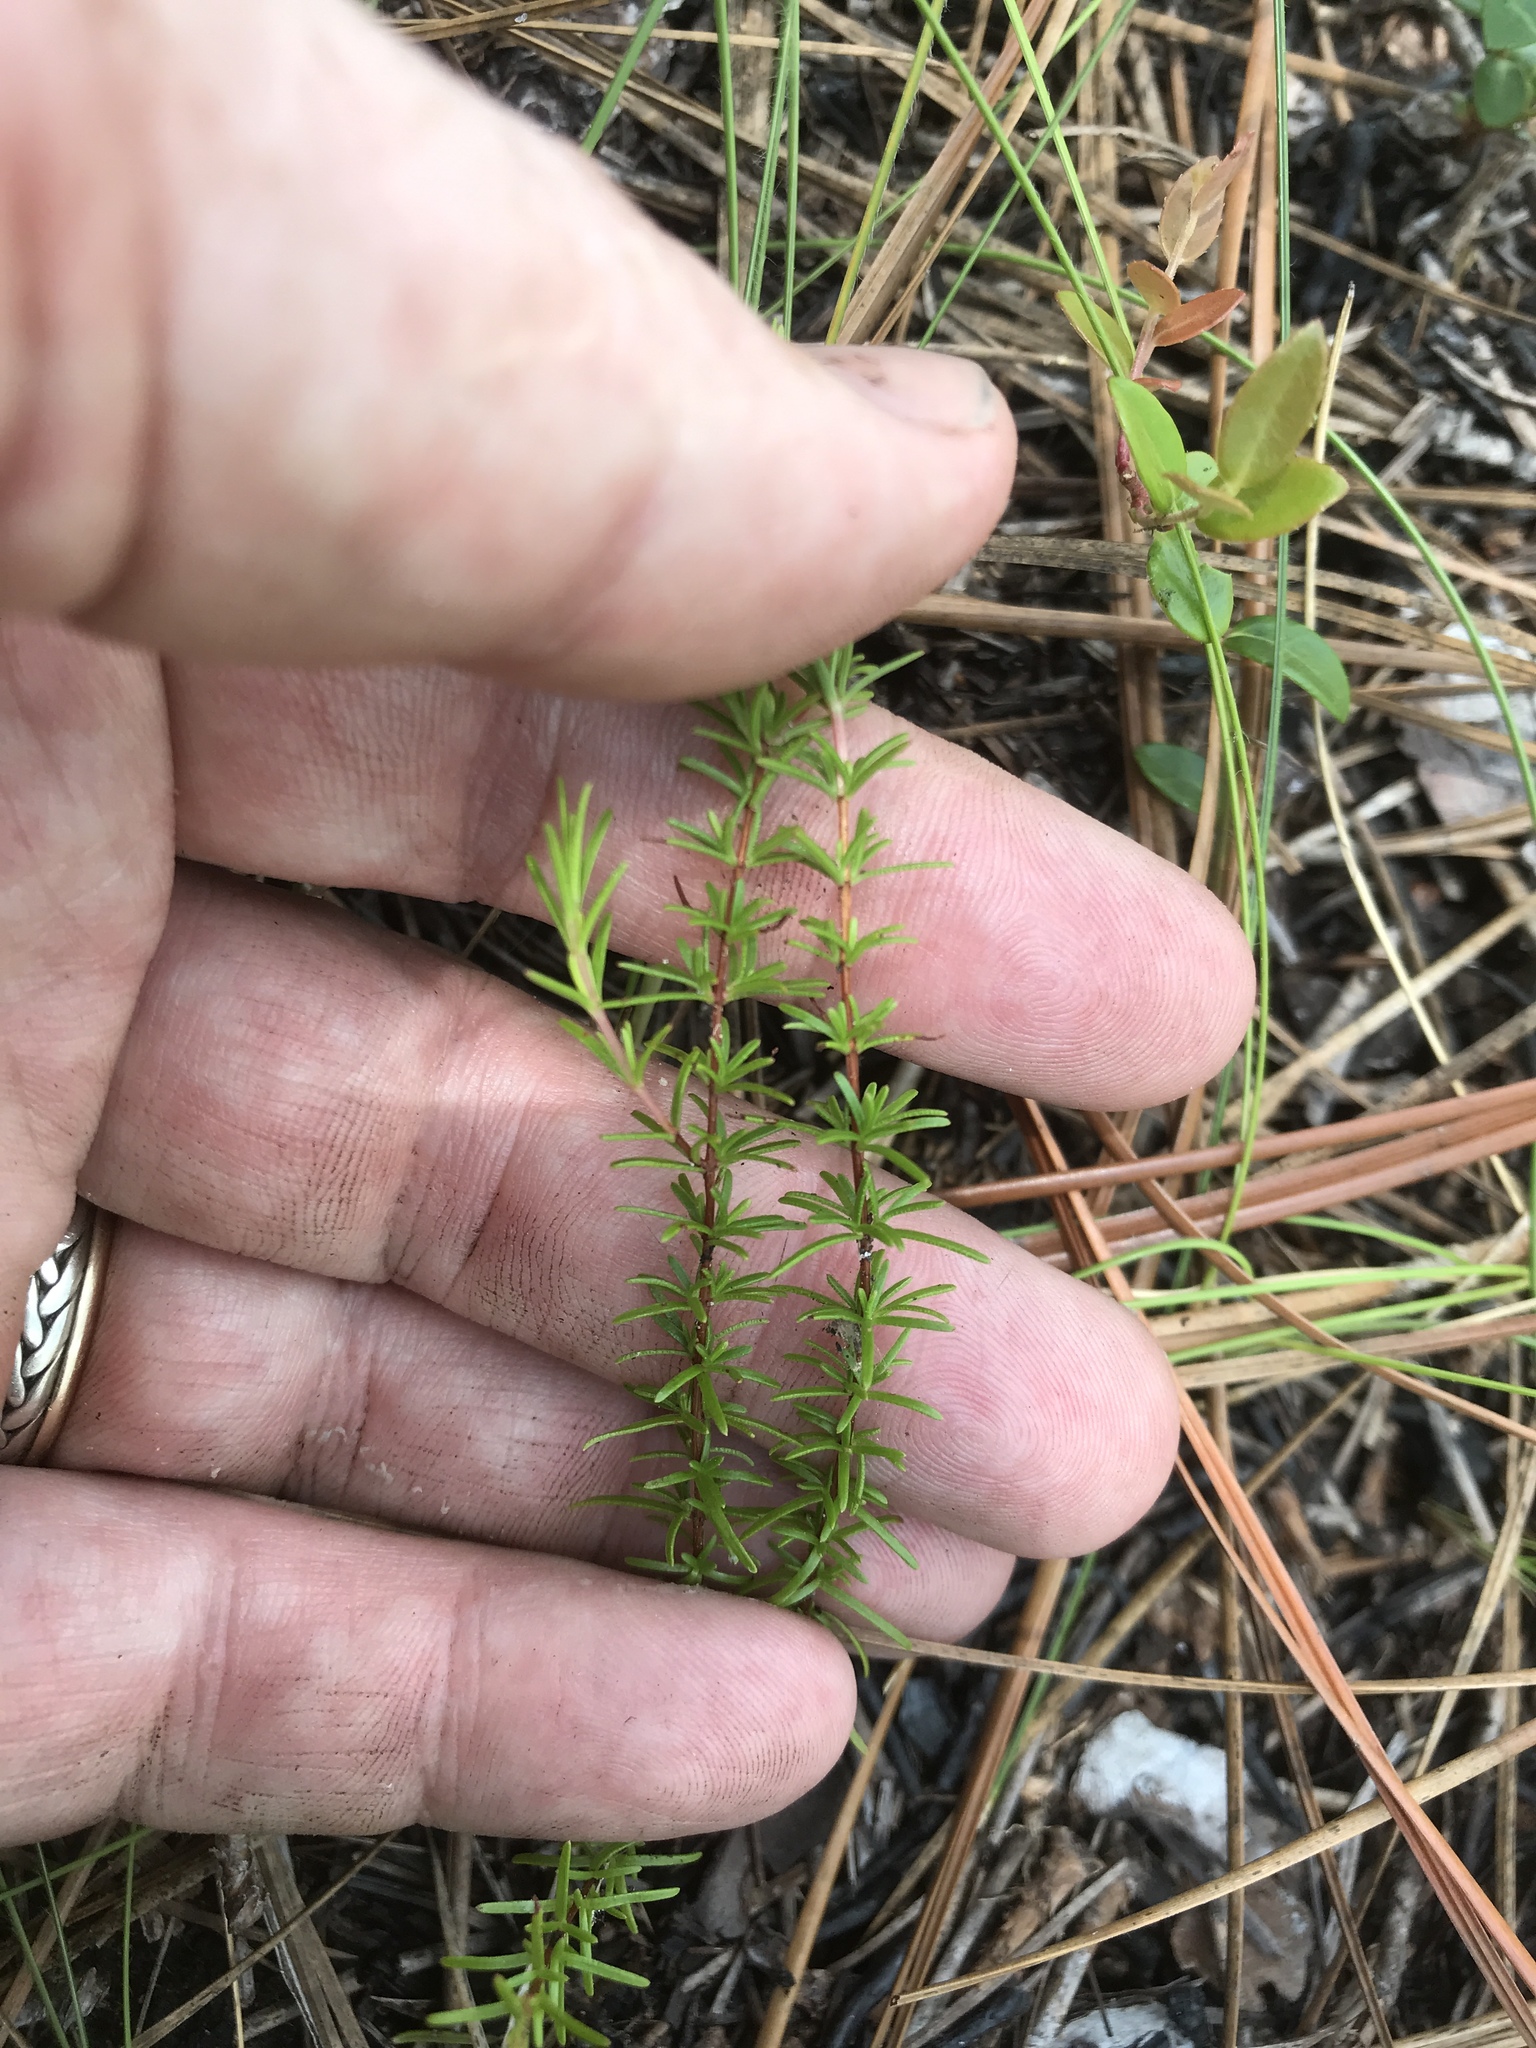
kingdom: Plantae
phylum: Tracheophyta
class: Magnoliopsida
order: Malpighiales
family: Hypericaceae
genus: Hypericum
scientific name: Hypericum tenuifolium
